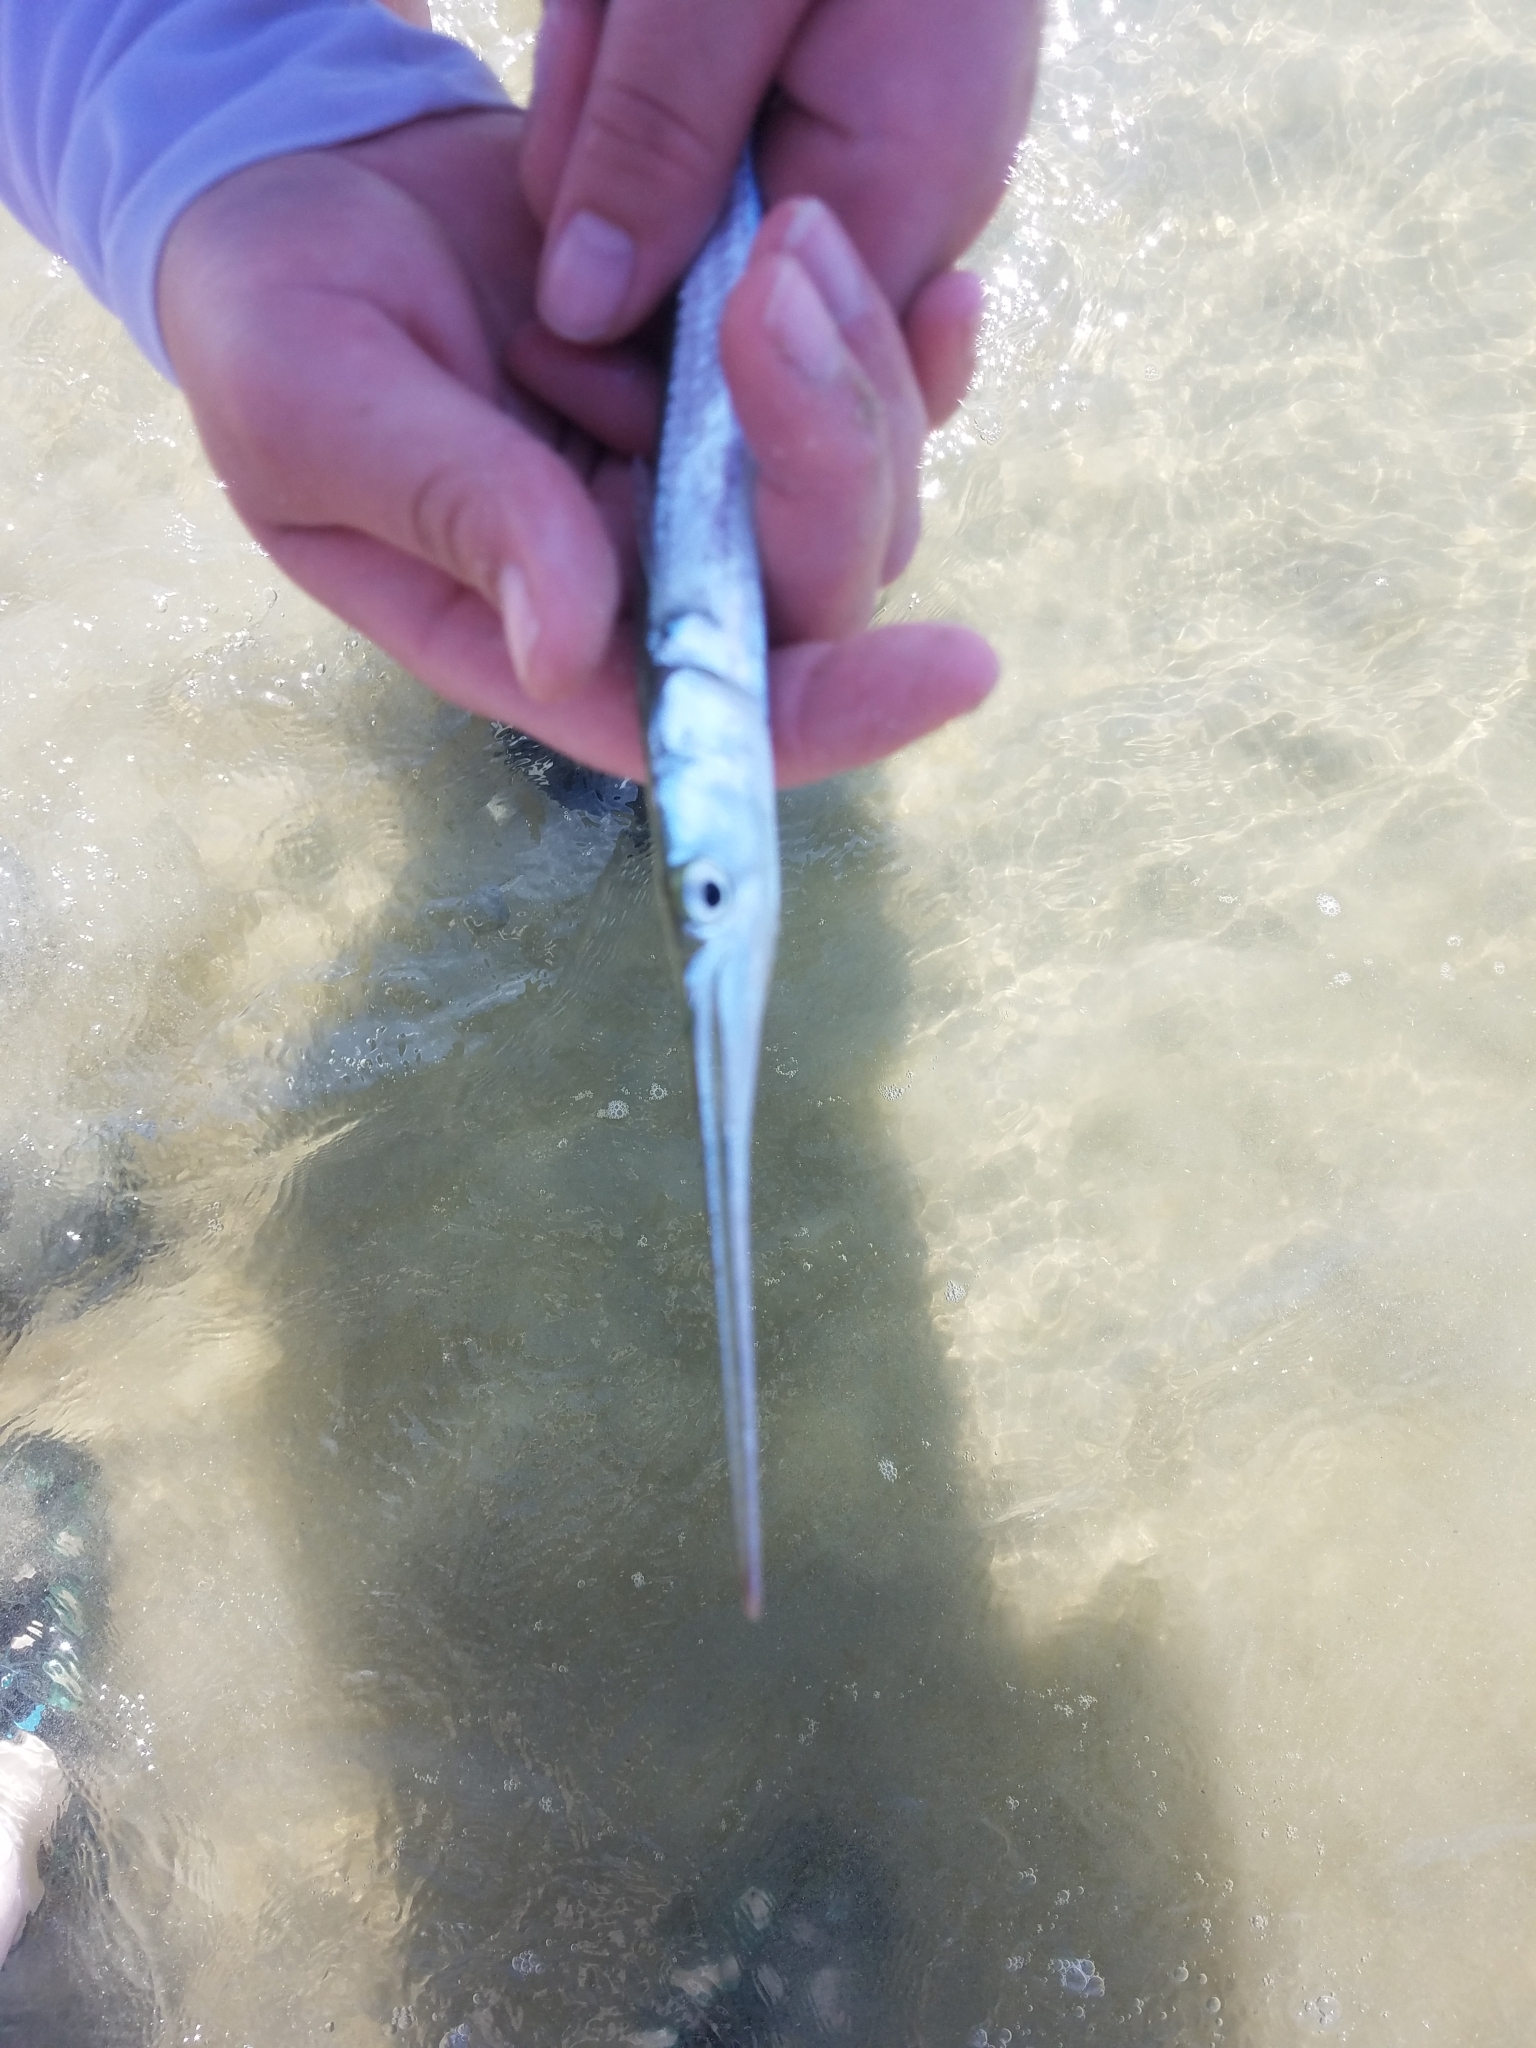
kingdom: Animalia
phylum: Chordata
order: Beloniformes
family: Belonidae
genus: Strongylura
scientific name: Strongylura marina
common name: Atlantic needlefish
